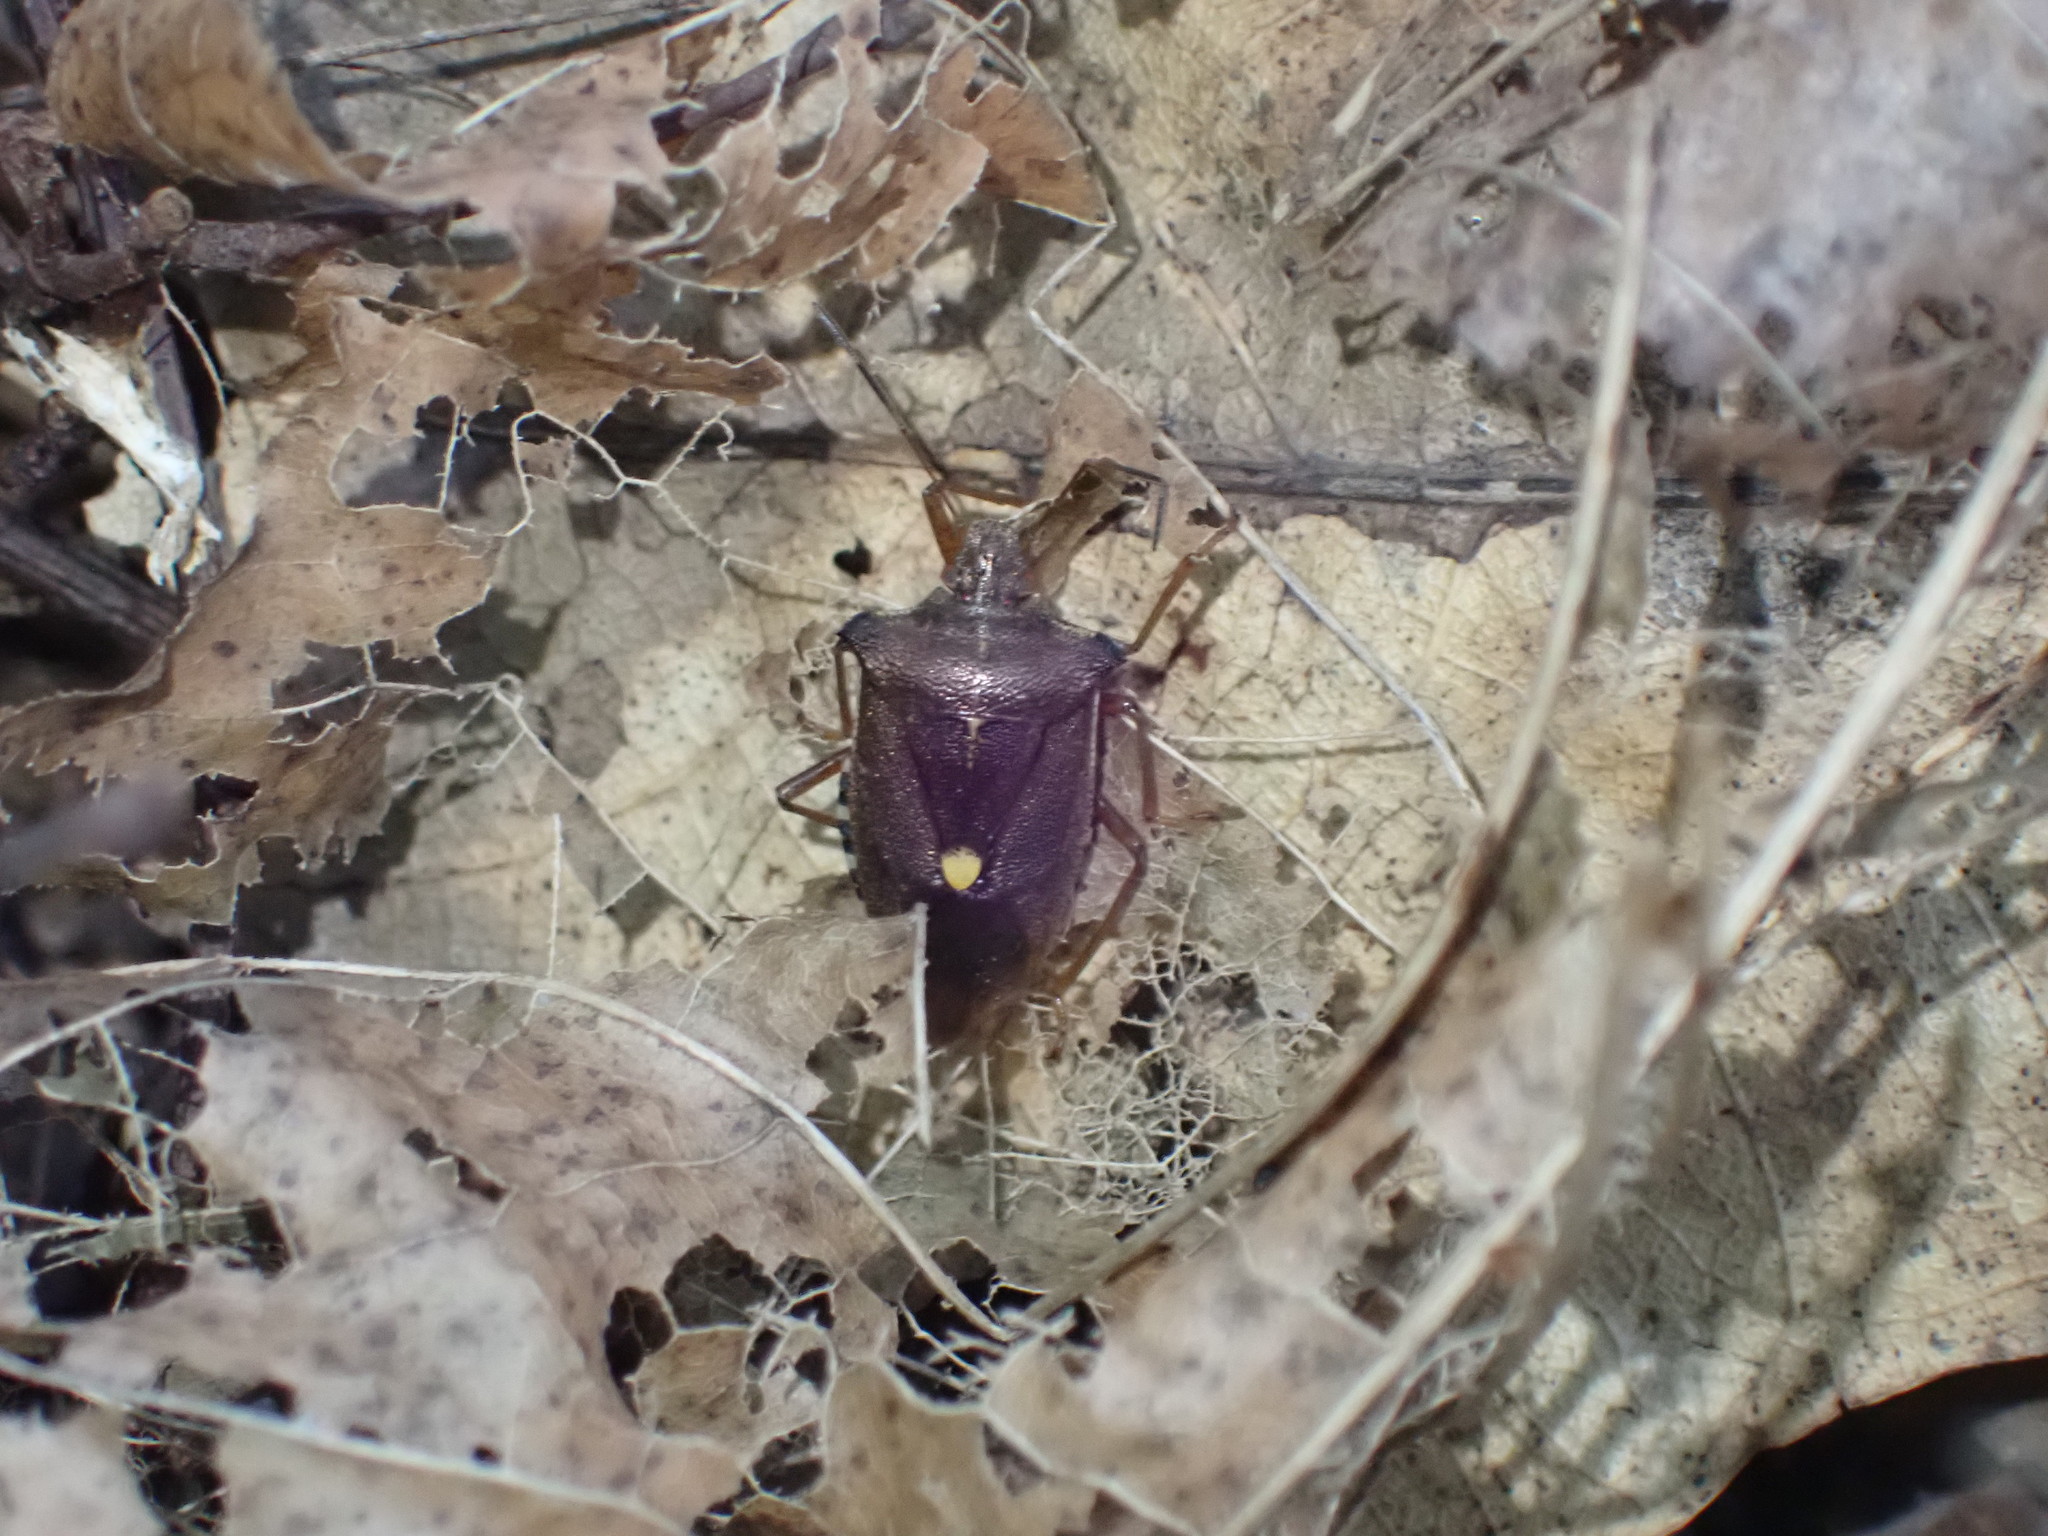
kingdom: Animalia
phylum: Arthropoda
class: Insecta
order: Hemiptera
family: Pentatomidae
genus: Pentatoma
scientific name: Pentatoma rufipes
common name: Forest bug
